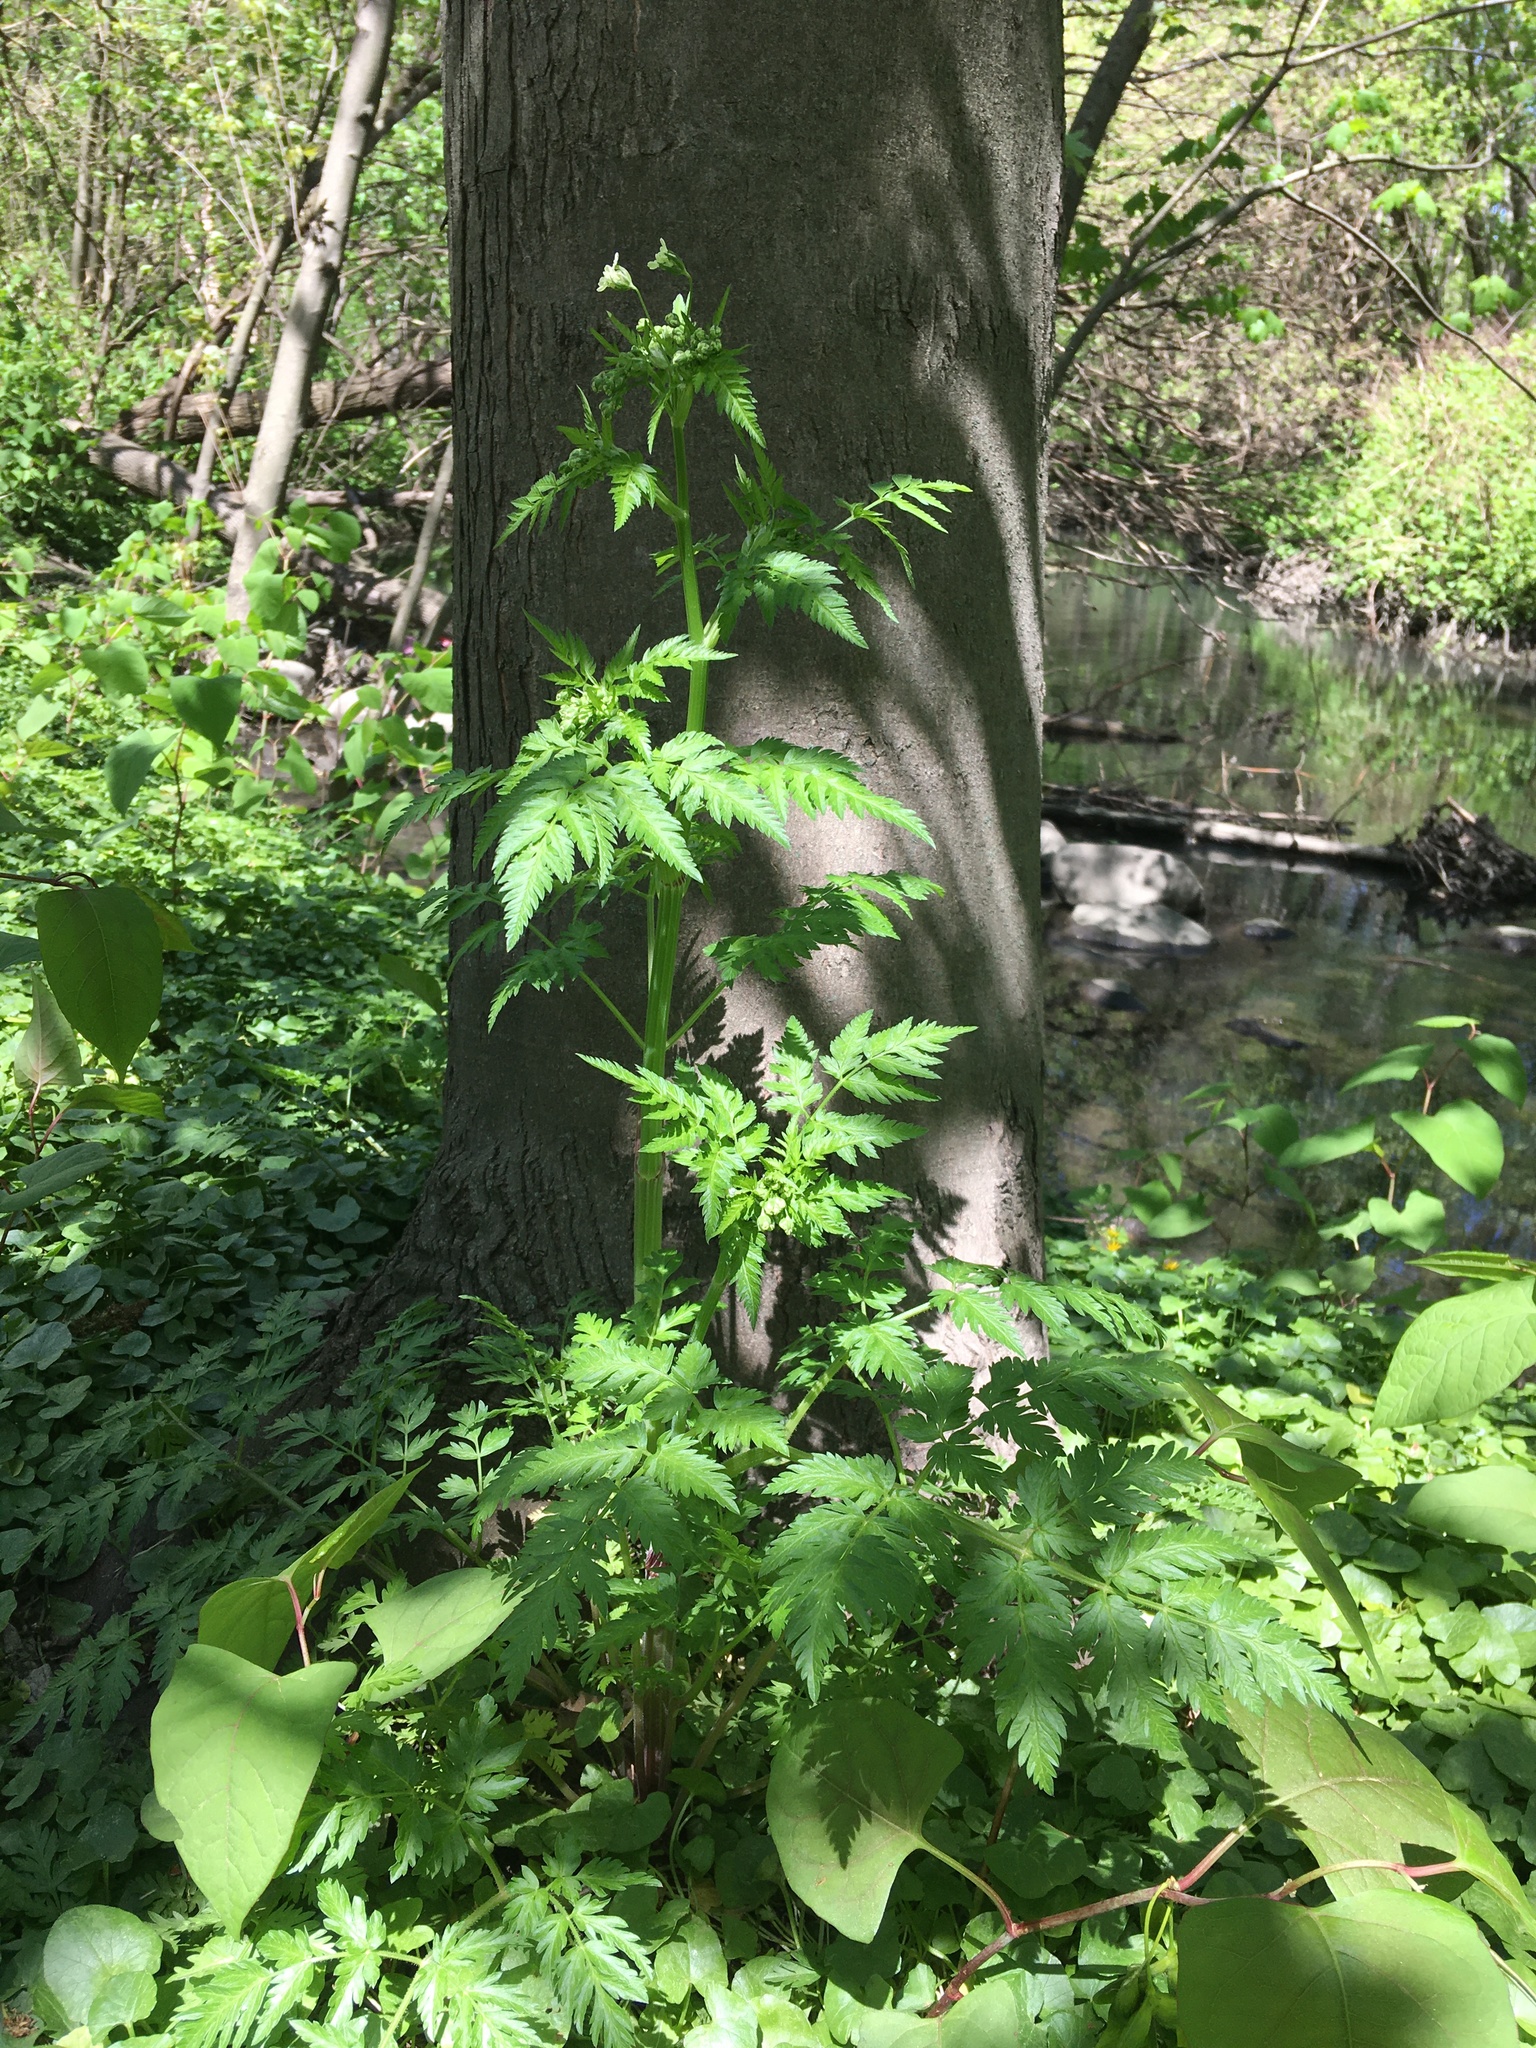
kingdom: Plantae
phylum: Tracheophyta
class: Magnoliopsida
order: Apiales
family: Apiaceae
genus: Anthriscus
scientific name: Anthriscus sylvestris
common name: Cow parsley
